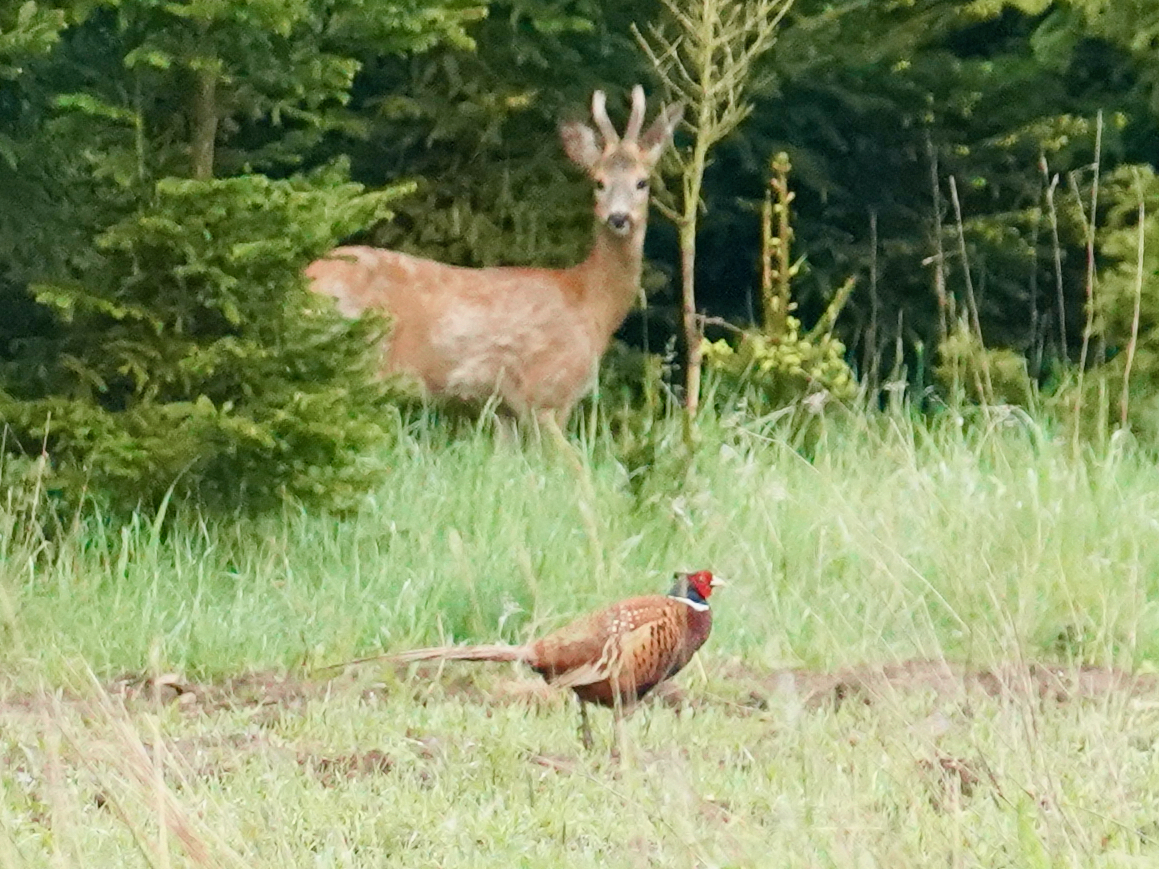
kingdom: Animalia
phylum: Chordata
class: Aves
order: Galliformes
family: Phasianidae
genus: Phasianus
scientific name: Phasianus colchicus
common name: Common pheasant
